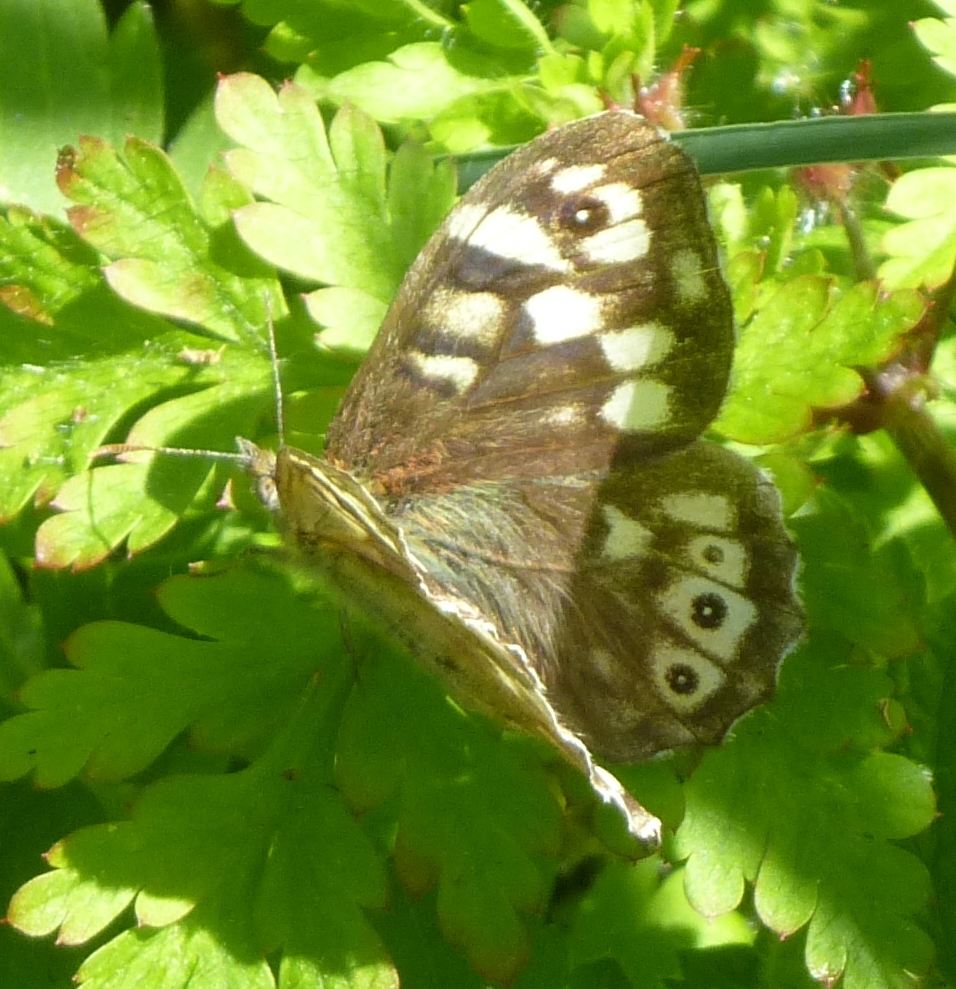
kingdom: Animalia
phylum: Arthropoda
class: Insecta
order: Lepidoptera
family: Nymphalidae
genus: Pararge
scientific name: Pararge aegeria
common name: Speckled wood
